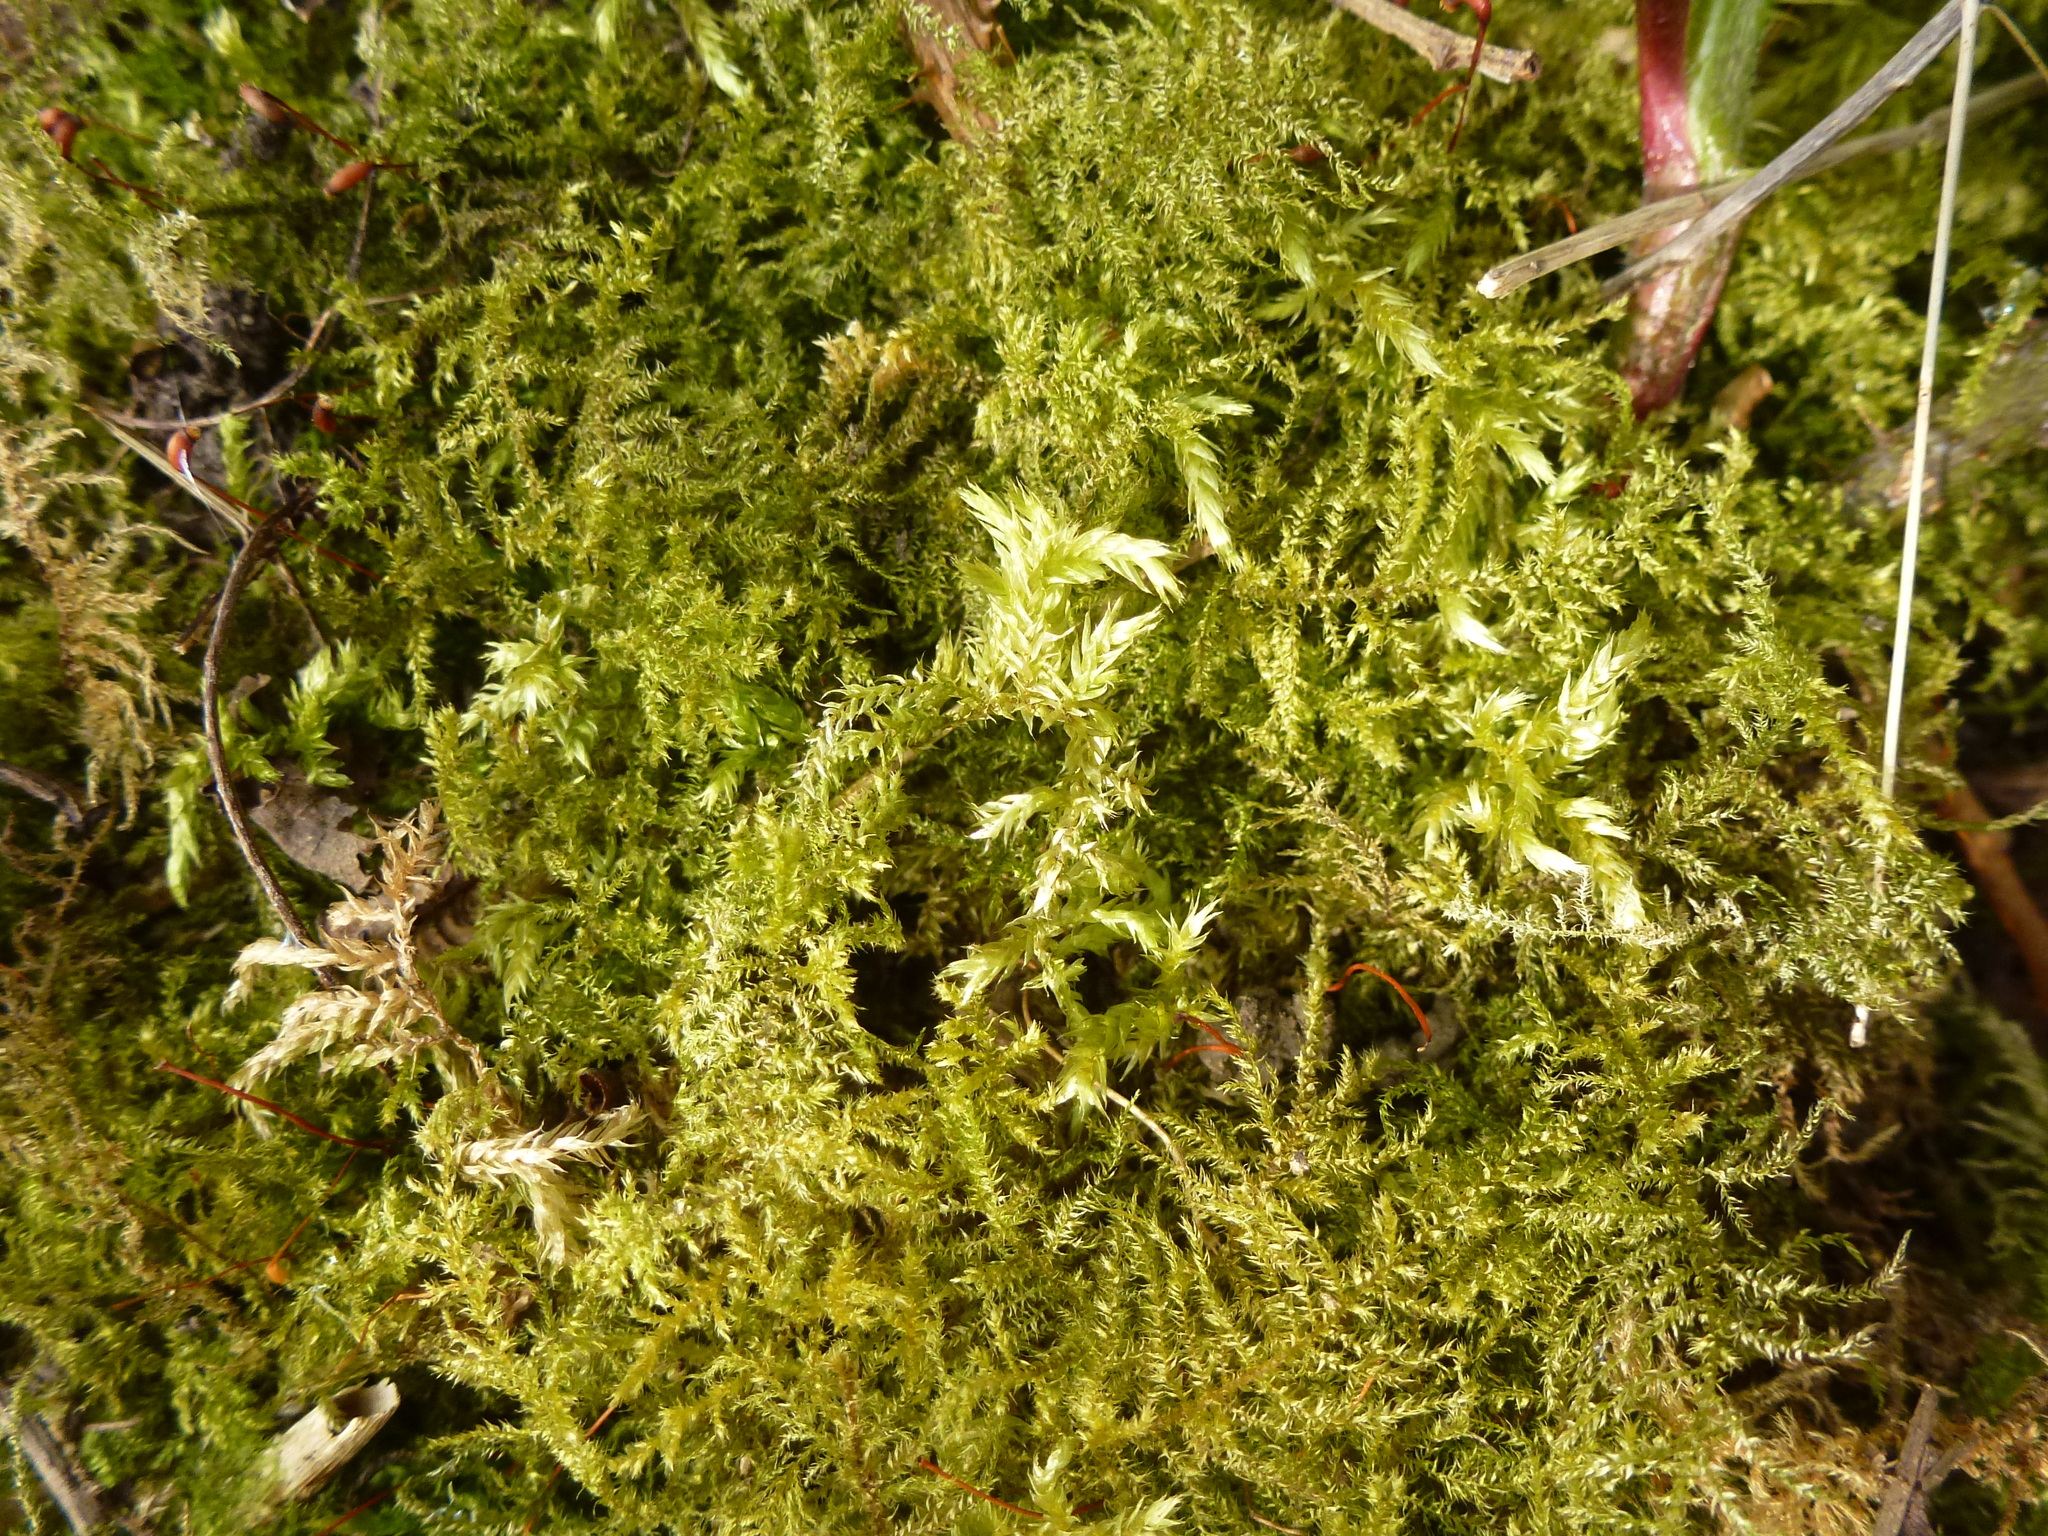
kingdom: Plantae
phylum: Bryophyta
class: Bryopsida
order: Hypnales
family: Brachytheciaceae
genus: Kindbergia
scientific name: Kindbergia praelonga
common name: Slender beaked moss
